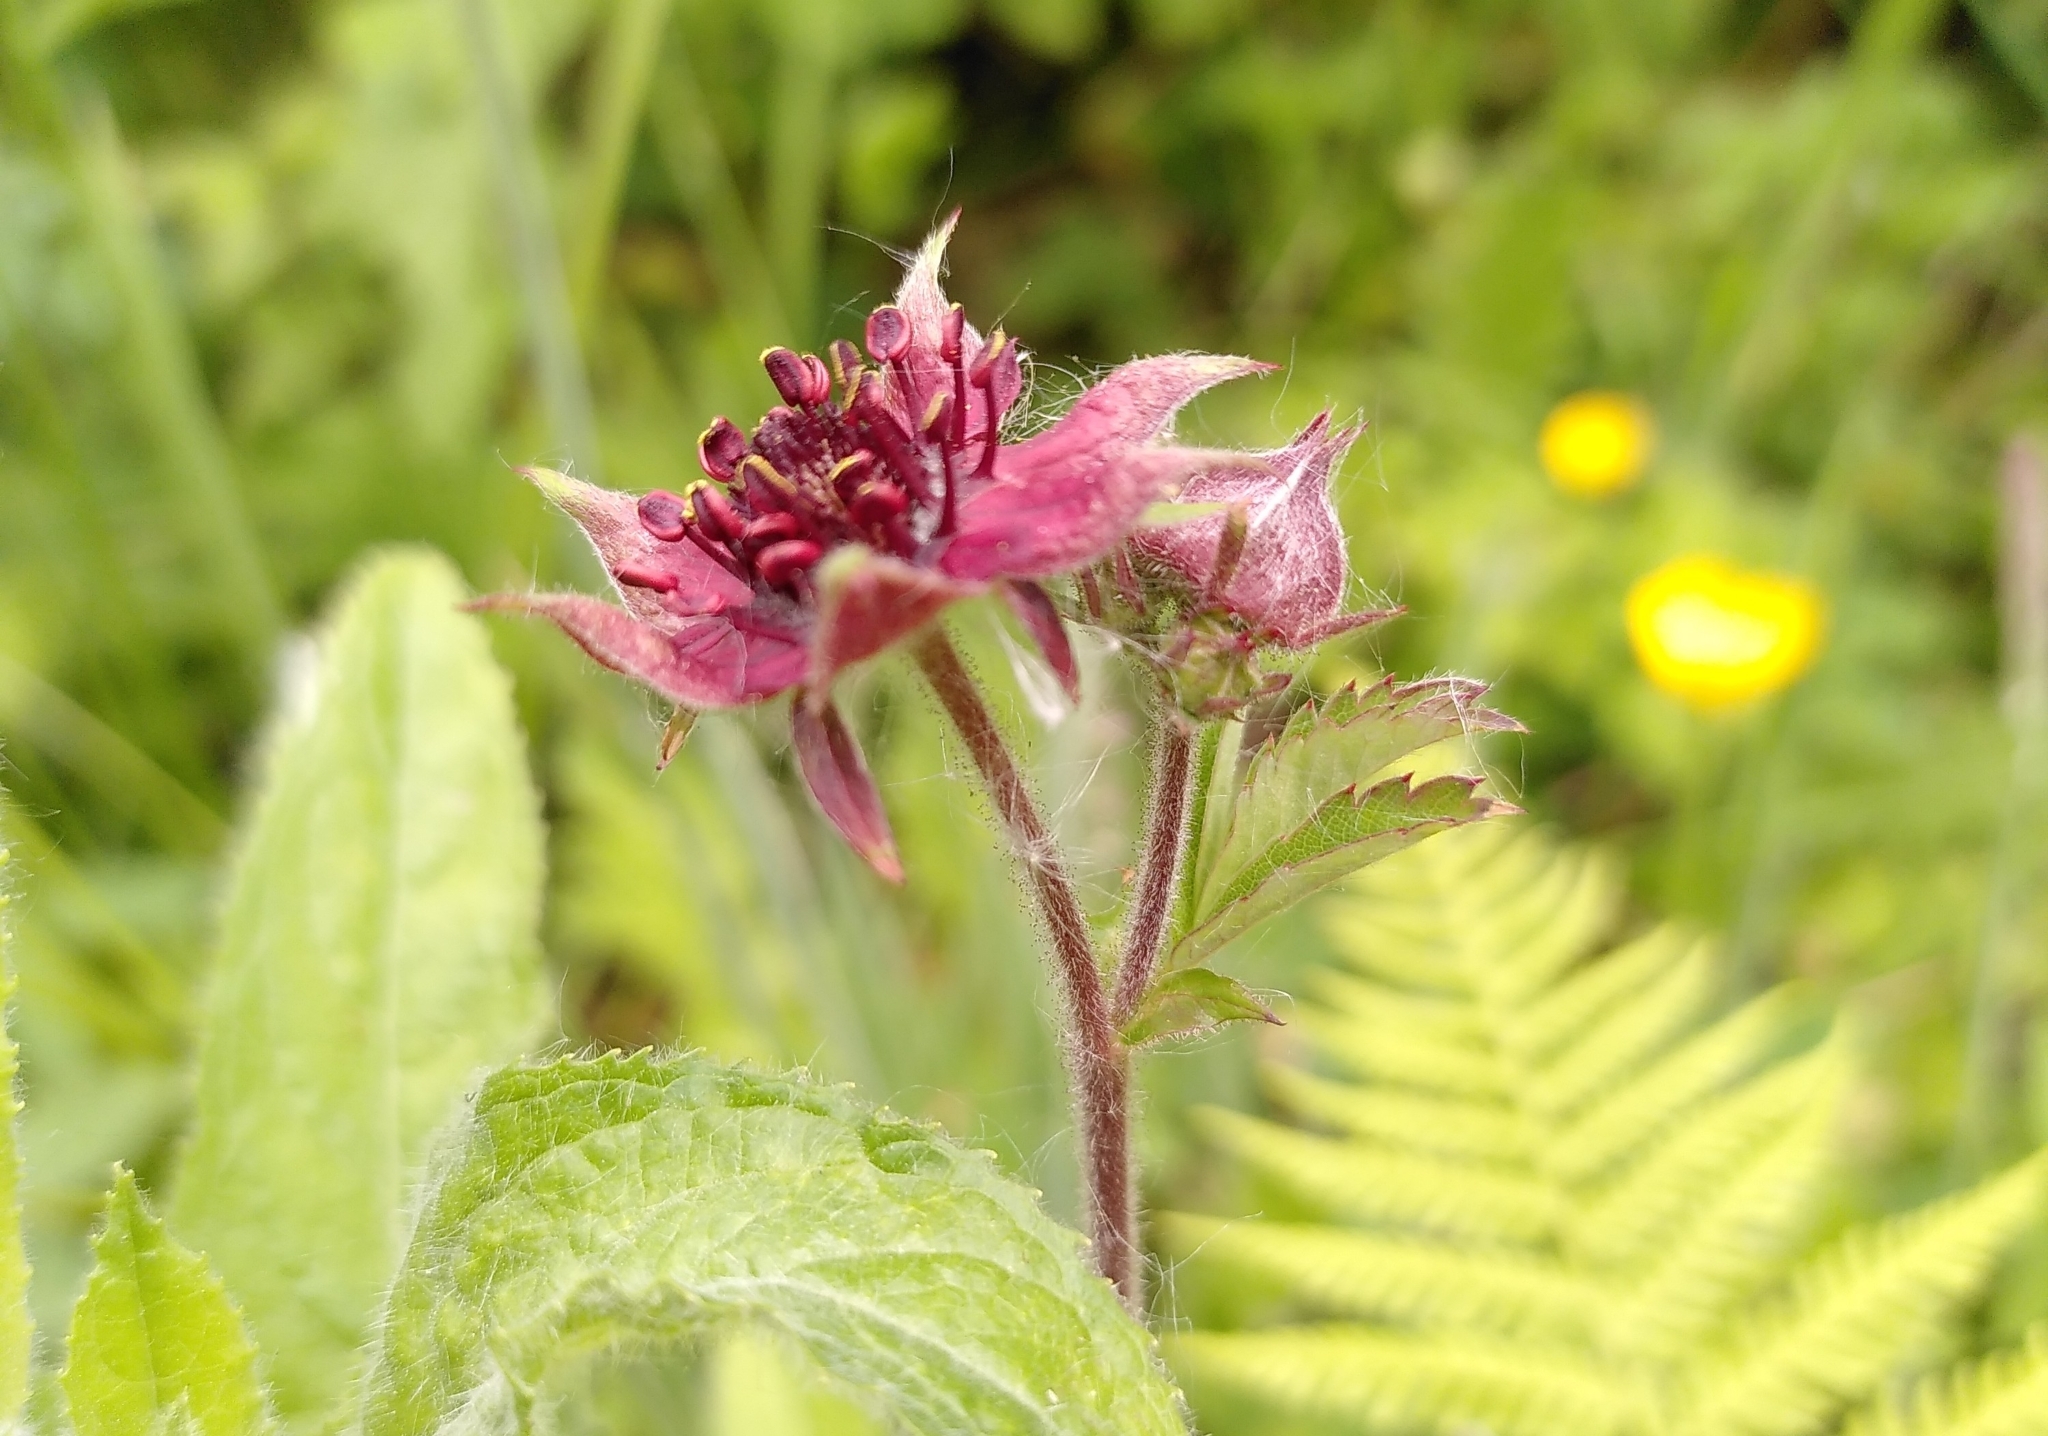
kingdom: Plantae
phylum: Tracheophyta
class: Magnoliopsida
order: Rosales
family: Rosaceae
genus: Comarum
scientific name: Comarum palustre
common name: Marsh cinquefoil
